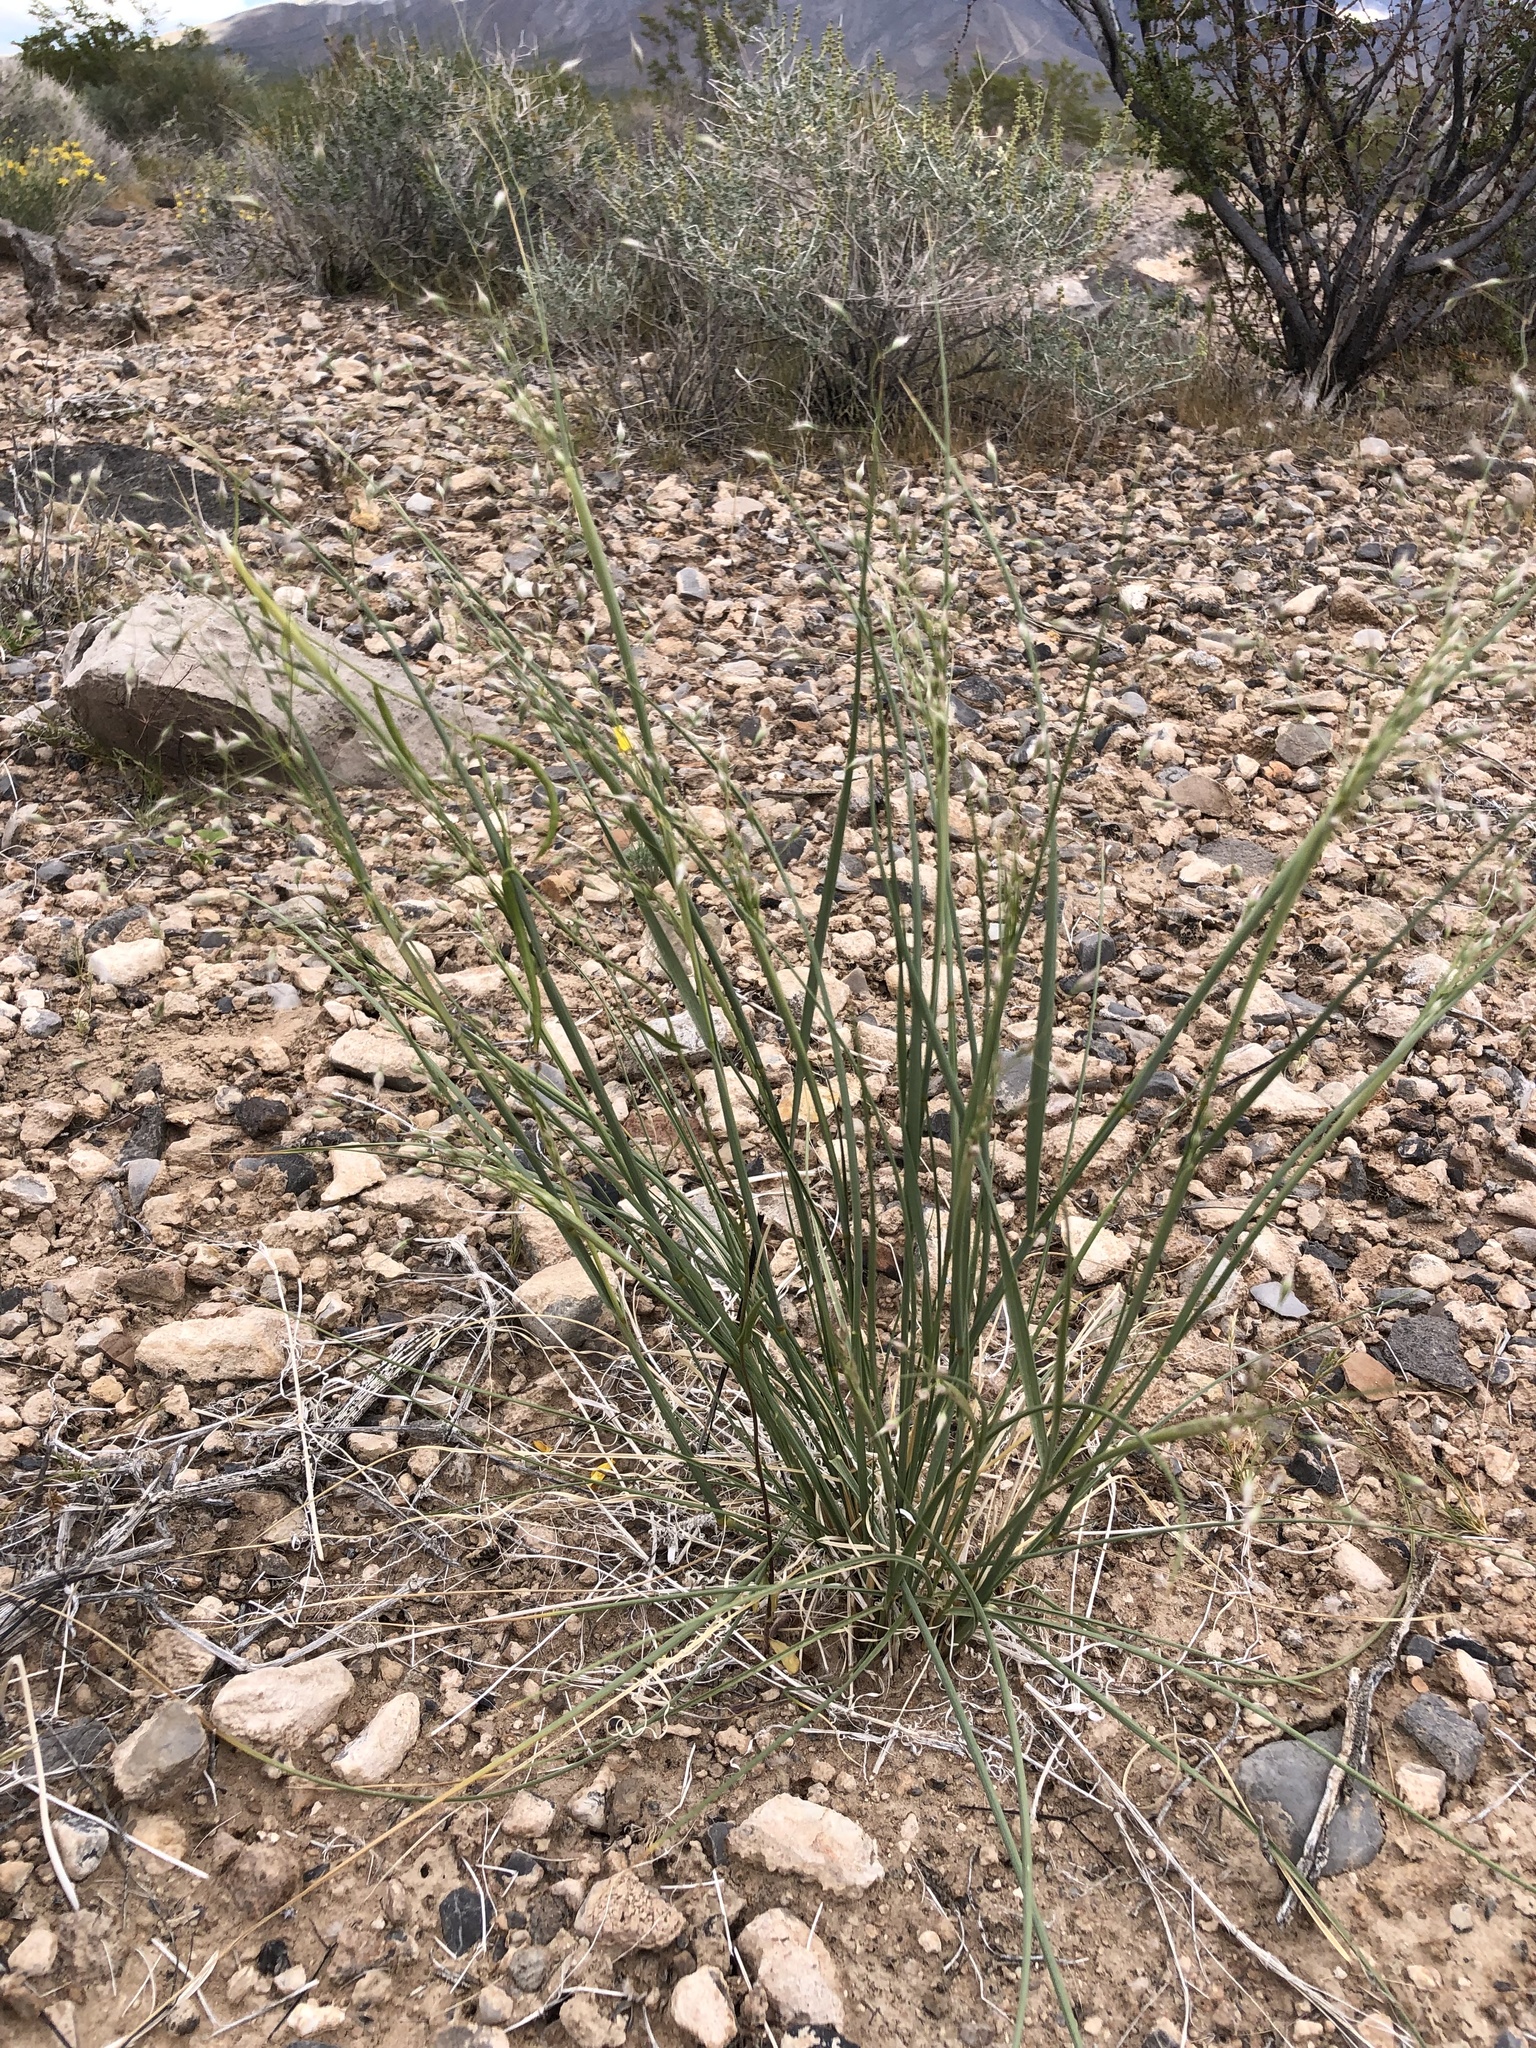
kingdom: Plantae
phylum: Tracheophyta
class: Liliopsida
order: Poales
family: Poaceae
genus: Eriocoma
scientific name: Eriocoma hymenoides
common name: Indian mountain ricegrass
